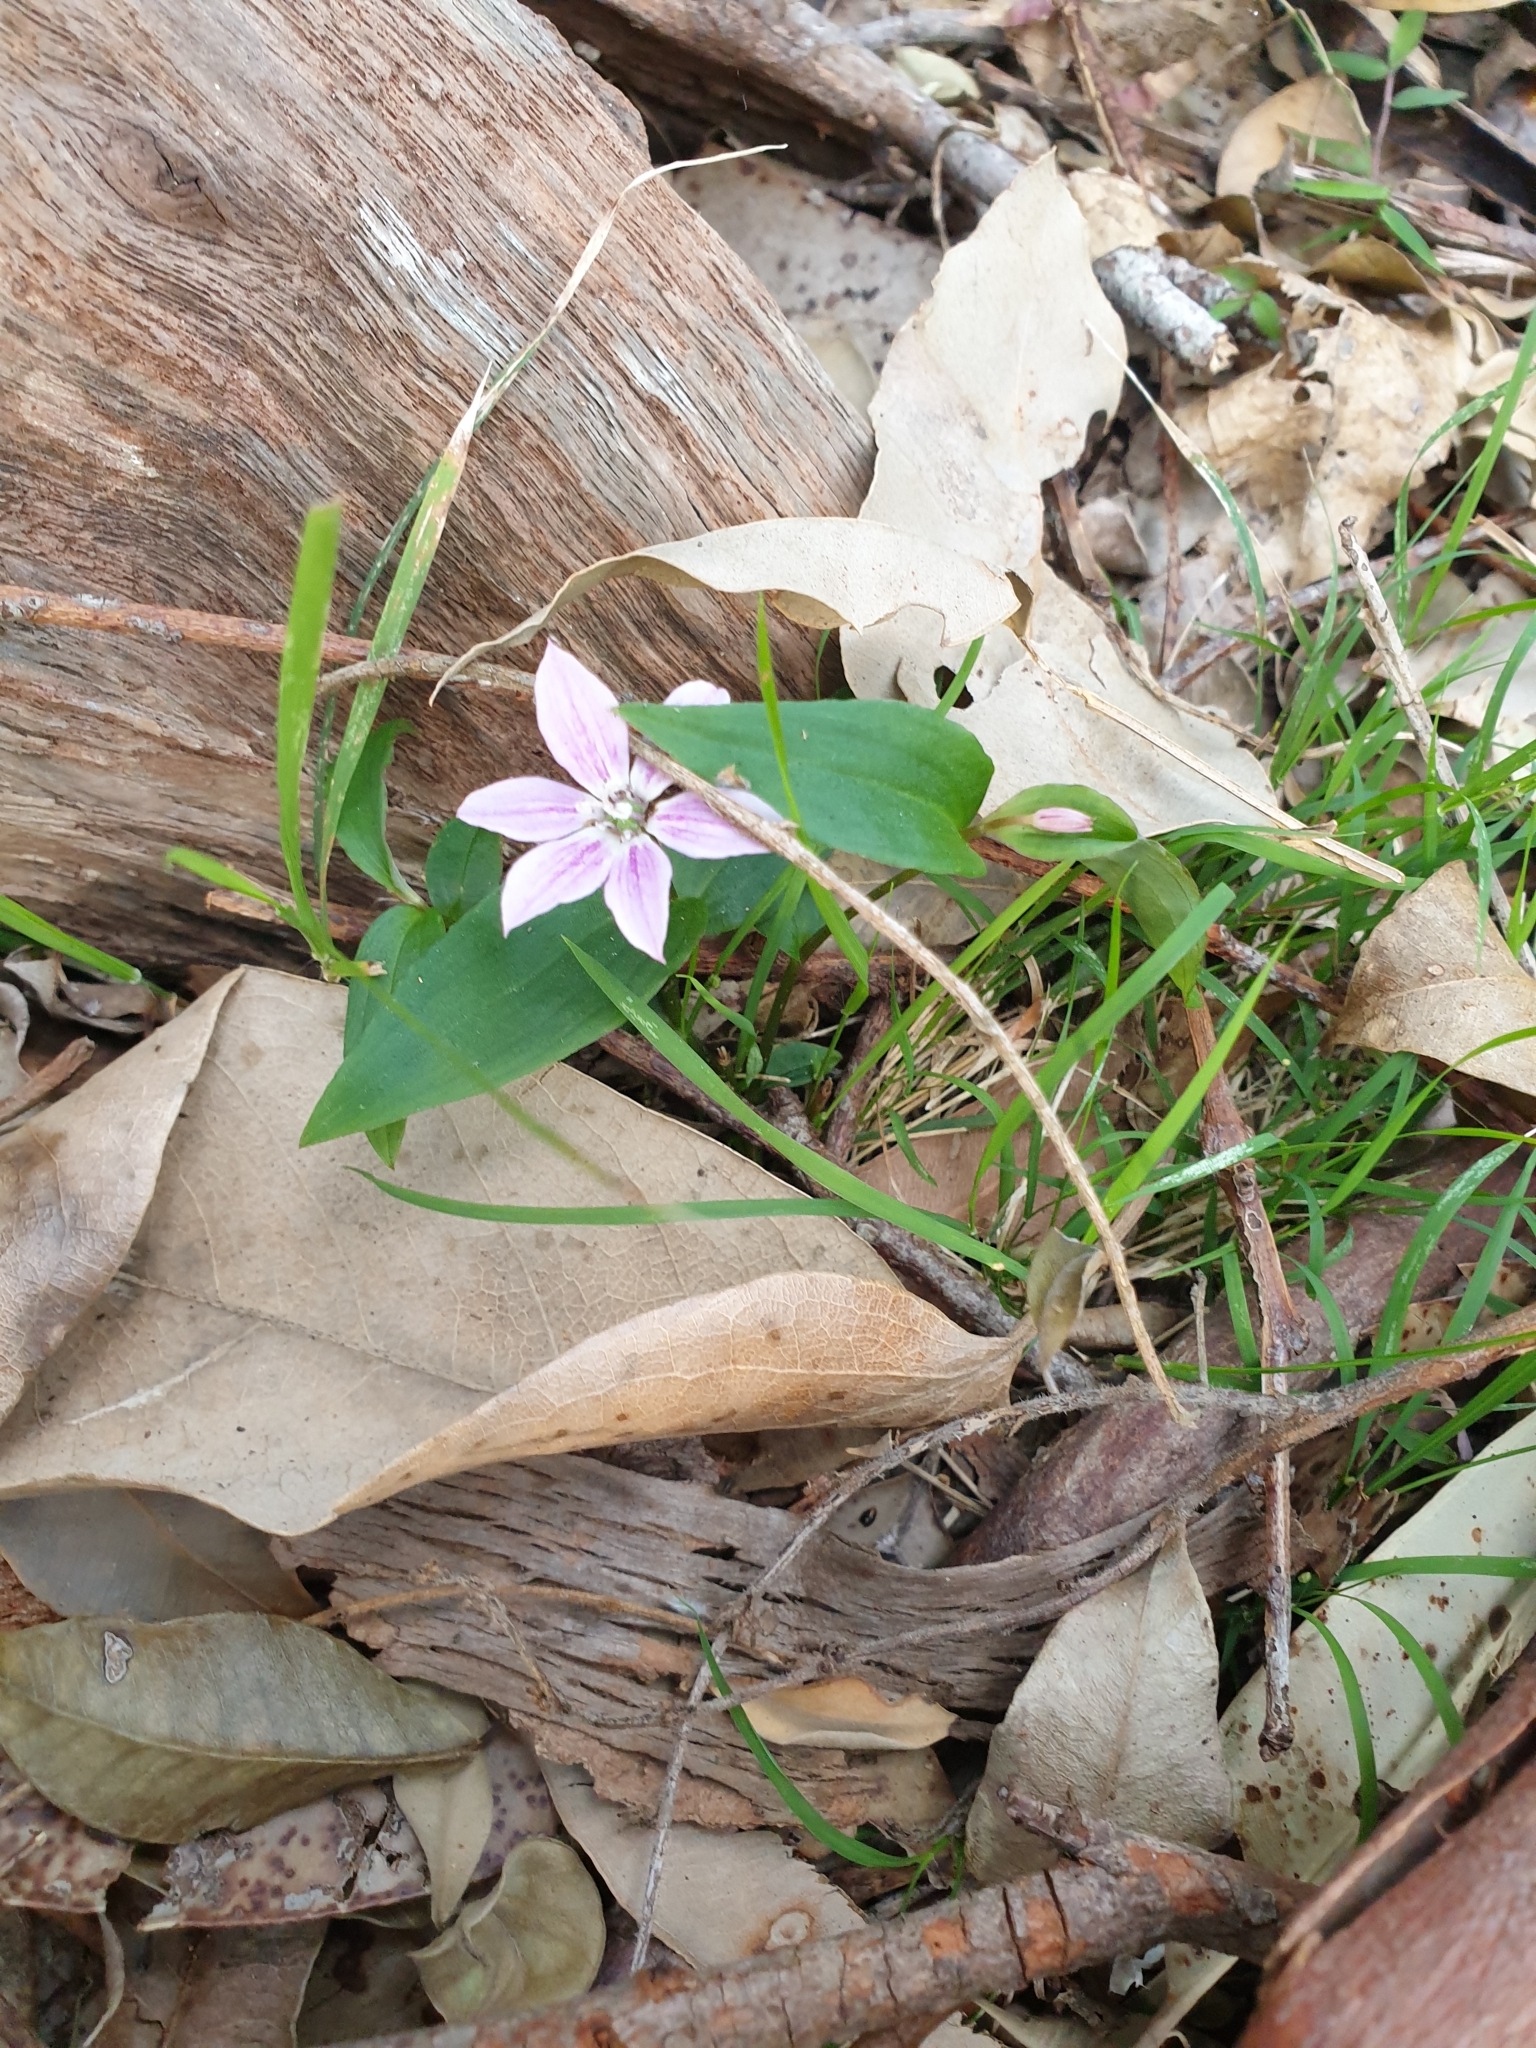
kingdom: Plantae
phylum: Tracheophyta
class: Liliopsida
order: Liliales
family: Colchicaceae
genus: Schelhammera
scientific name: Schelhammera undulata
